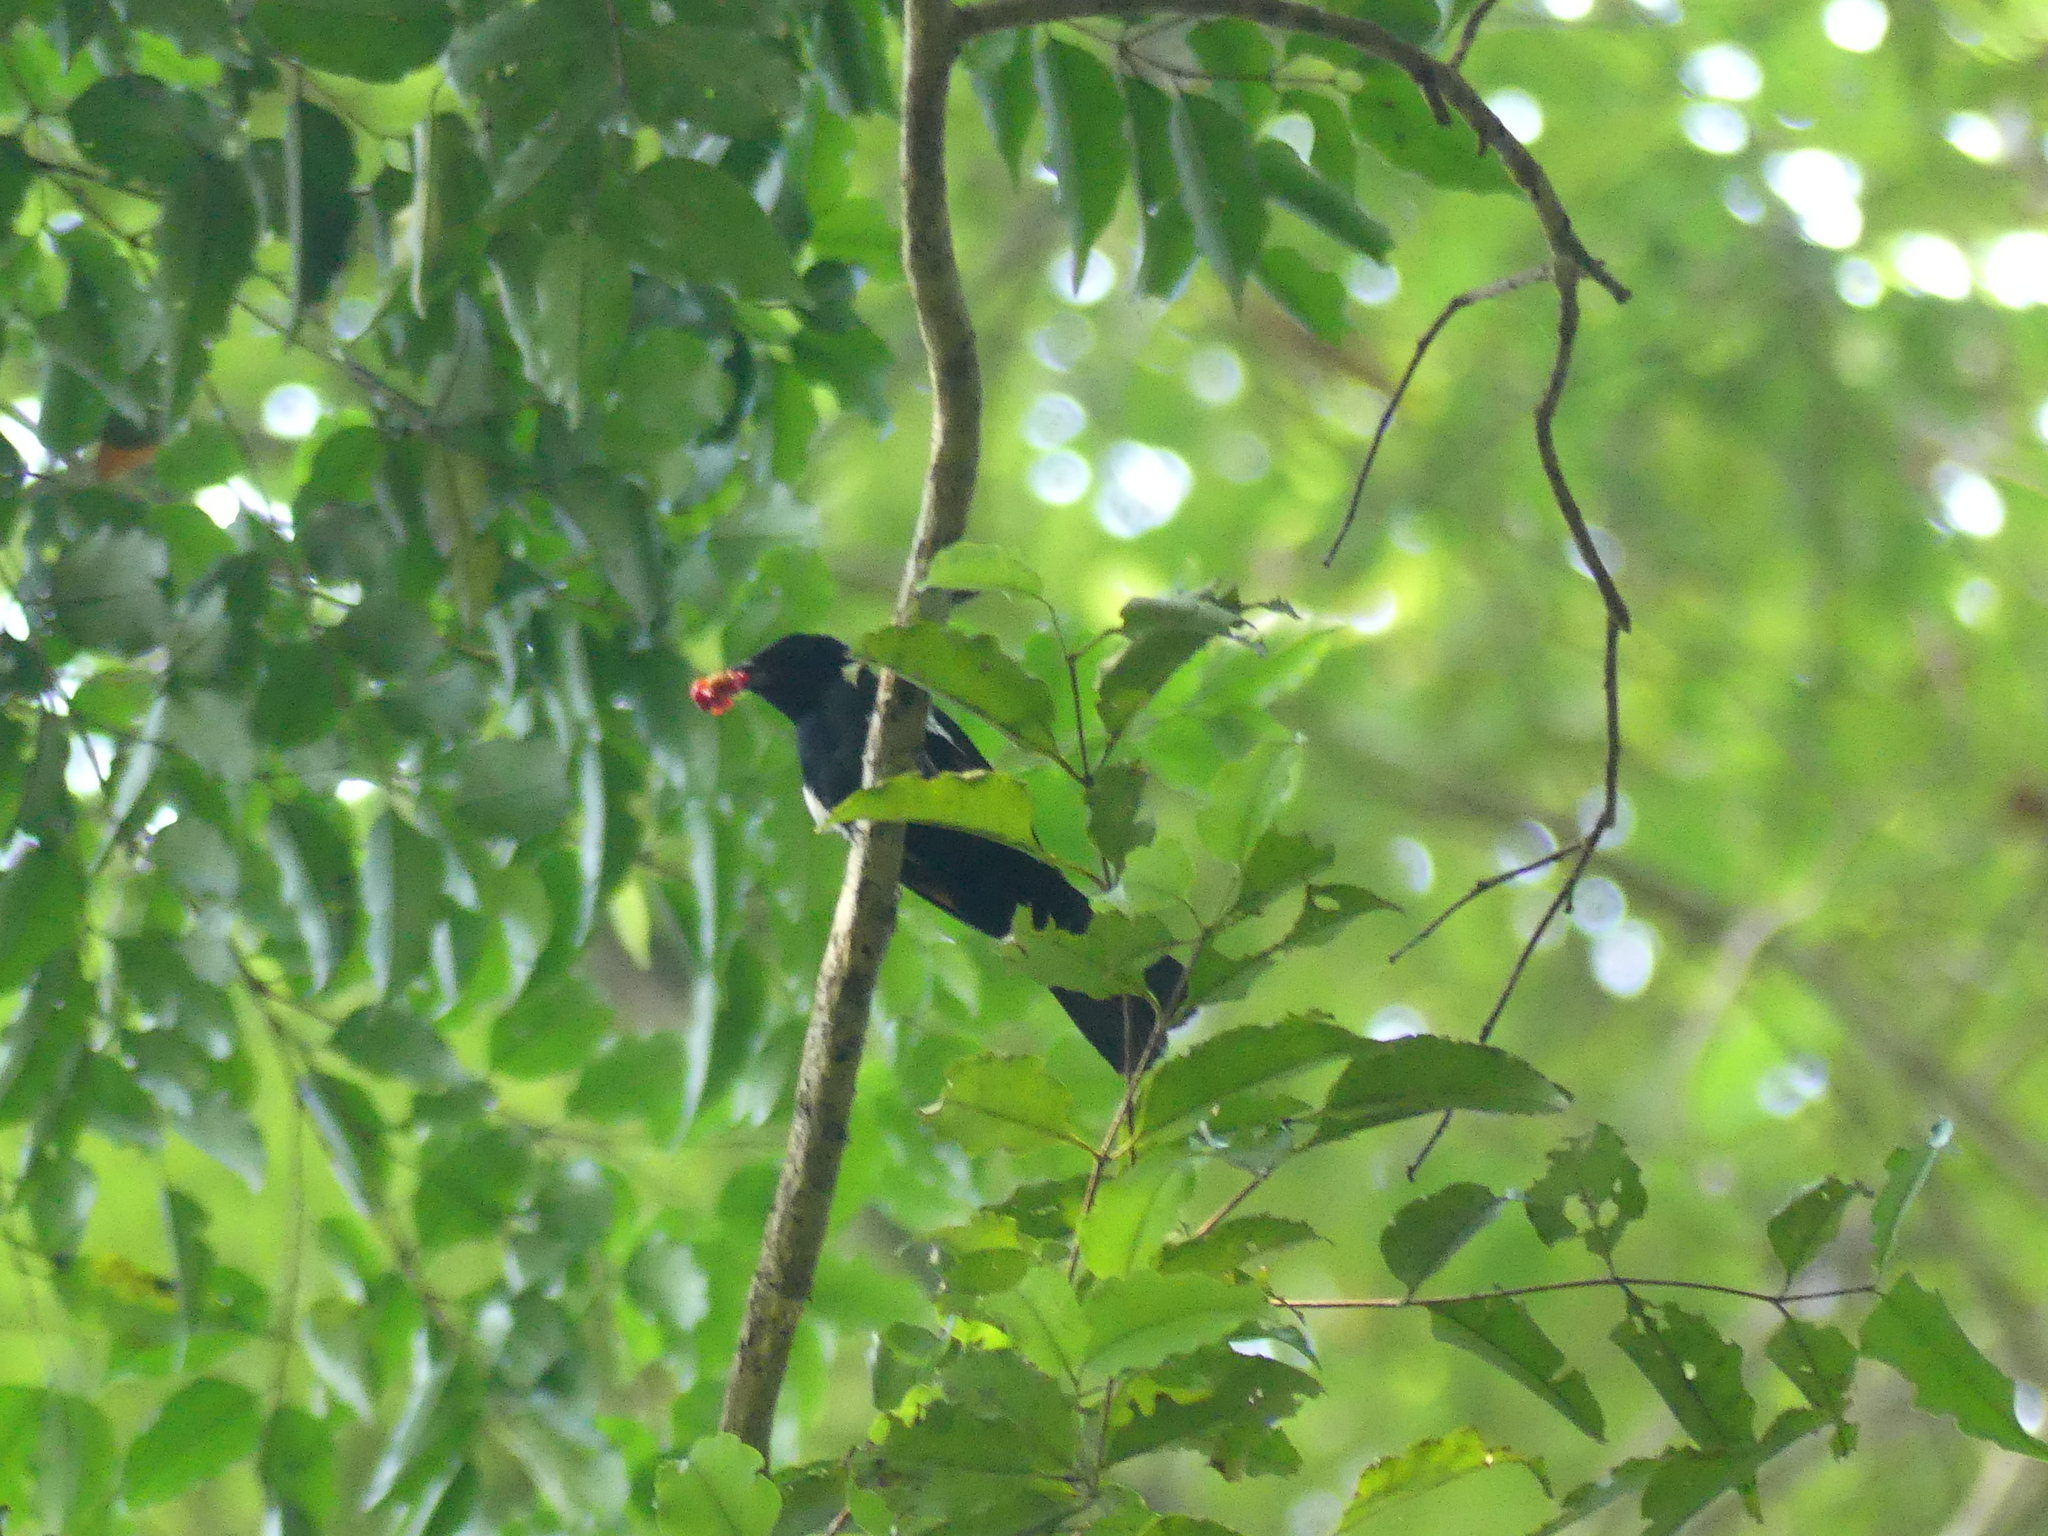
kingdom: Animalia
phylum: Chordata
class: Aves
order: Passeriformes
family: Thraupidae
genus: Tachyphonus
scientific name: Tachyphonus surinamus
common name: Fulvous-crested tanager
